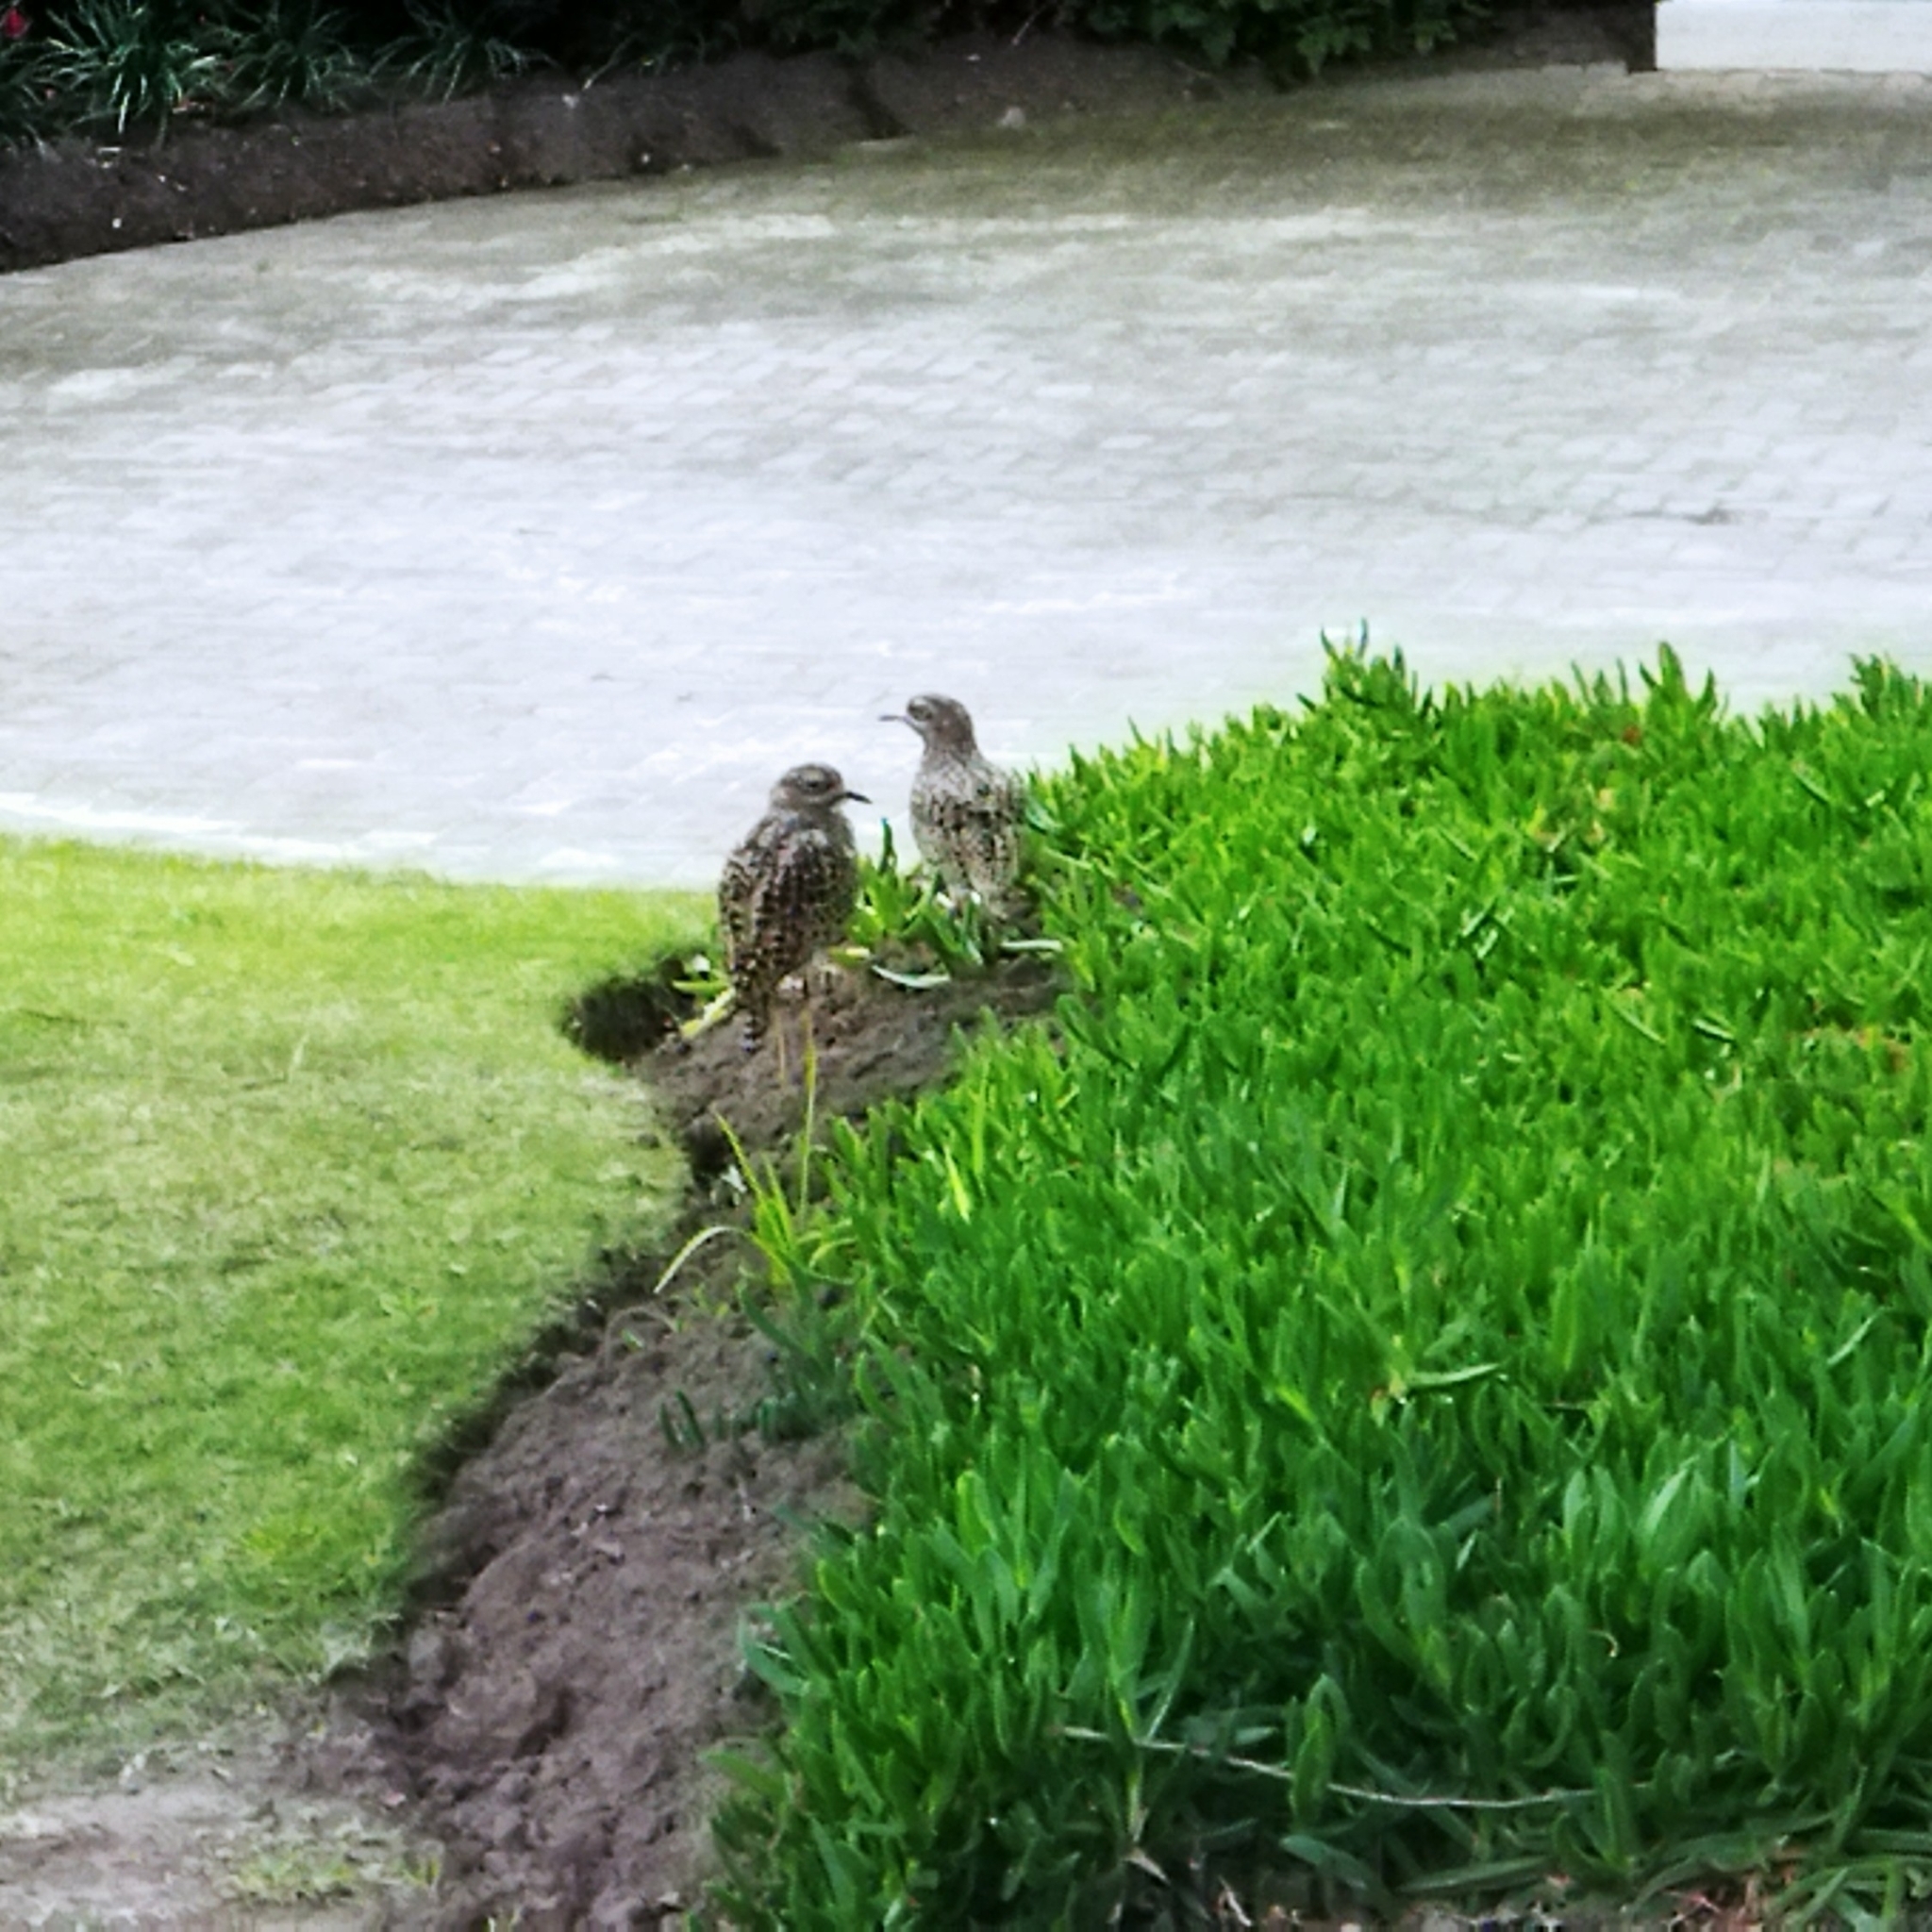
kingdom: Animalia
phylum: Chordata
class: Aves
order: Charadriiformes
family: Burhinidae
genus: Burhinus
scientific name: Burhinus capensis
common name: Spotted thick-knee
